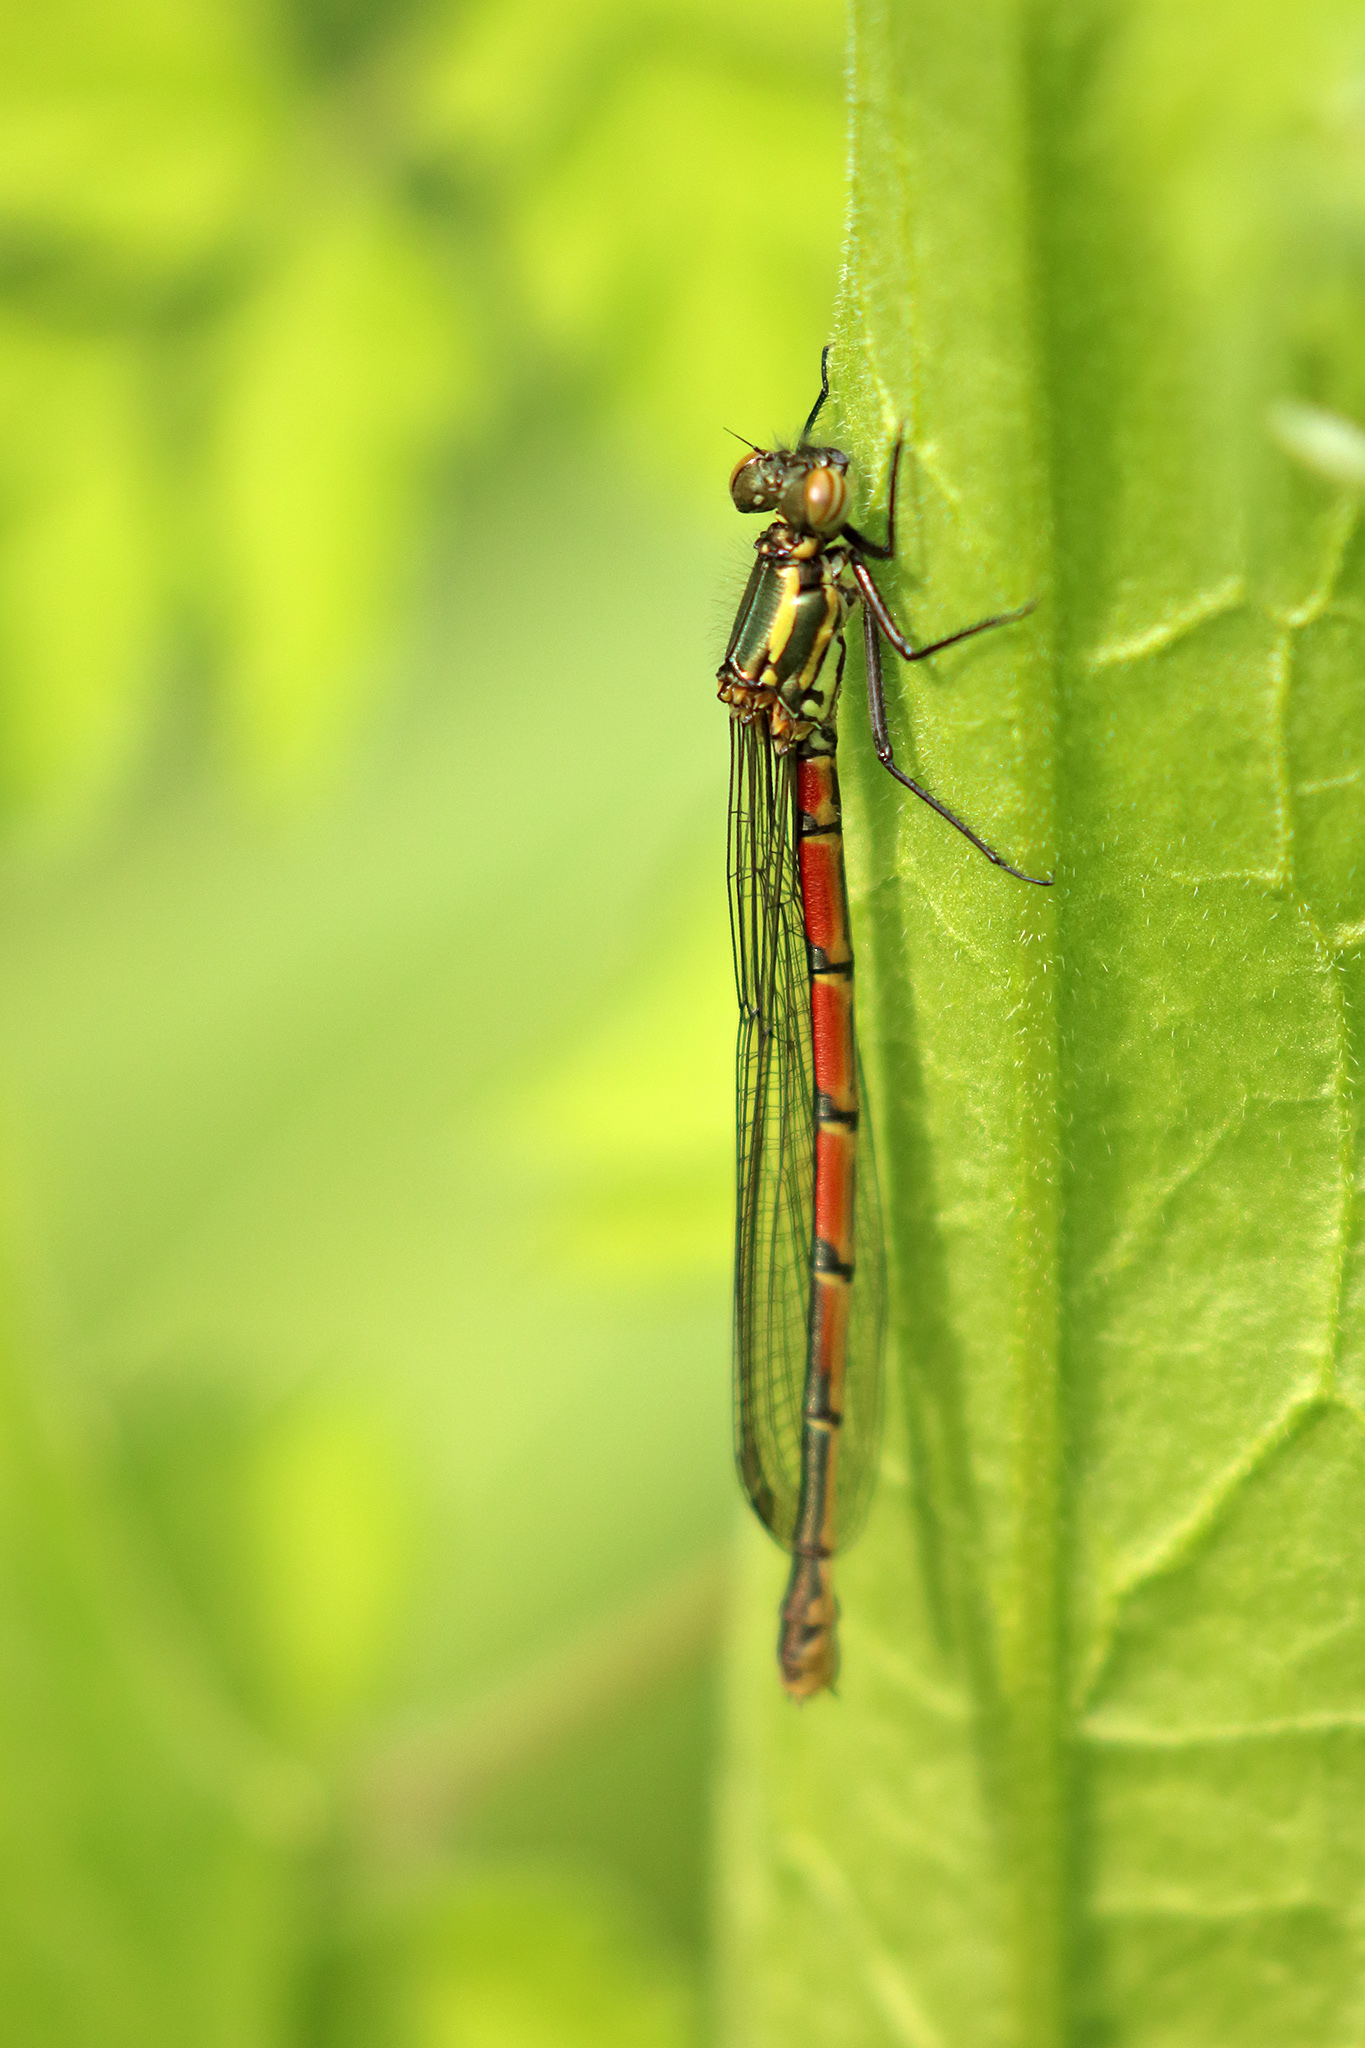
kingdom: Animalia
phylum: Arthropoda
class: Insecta
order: Odonata
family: Coenagrionidae
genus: Pyrrhosoma
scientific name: Pyrrhosoma nymphula
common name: Large red damsel
